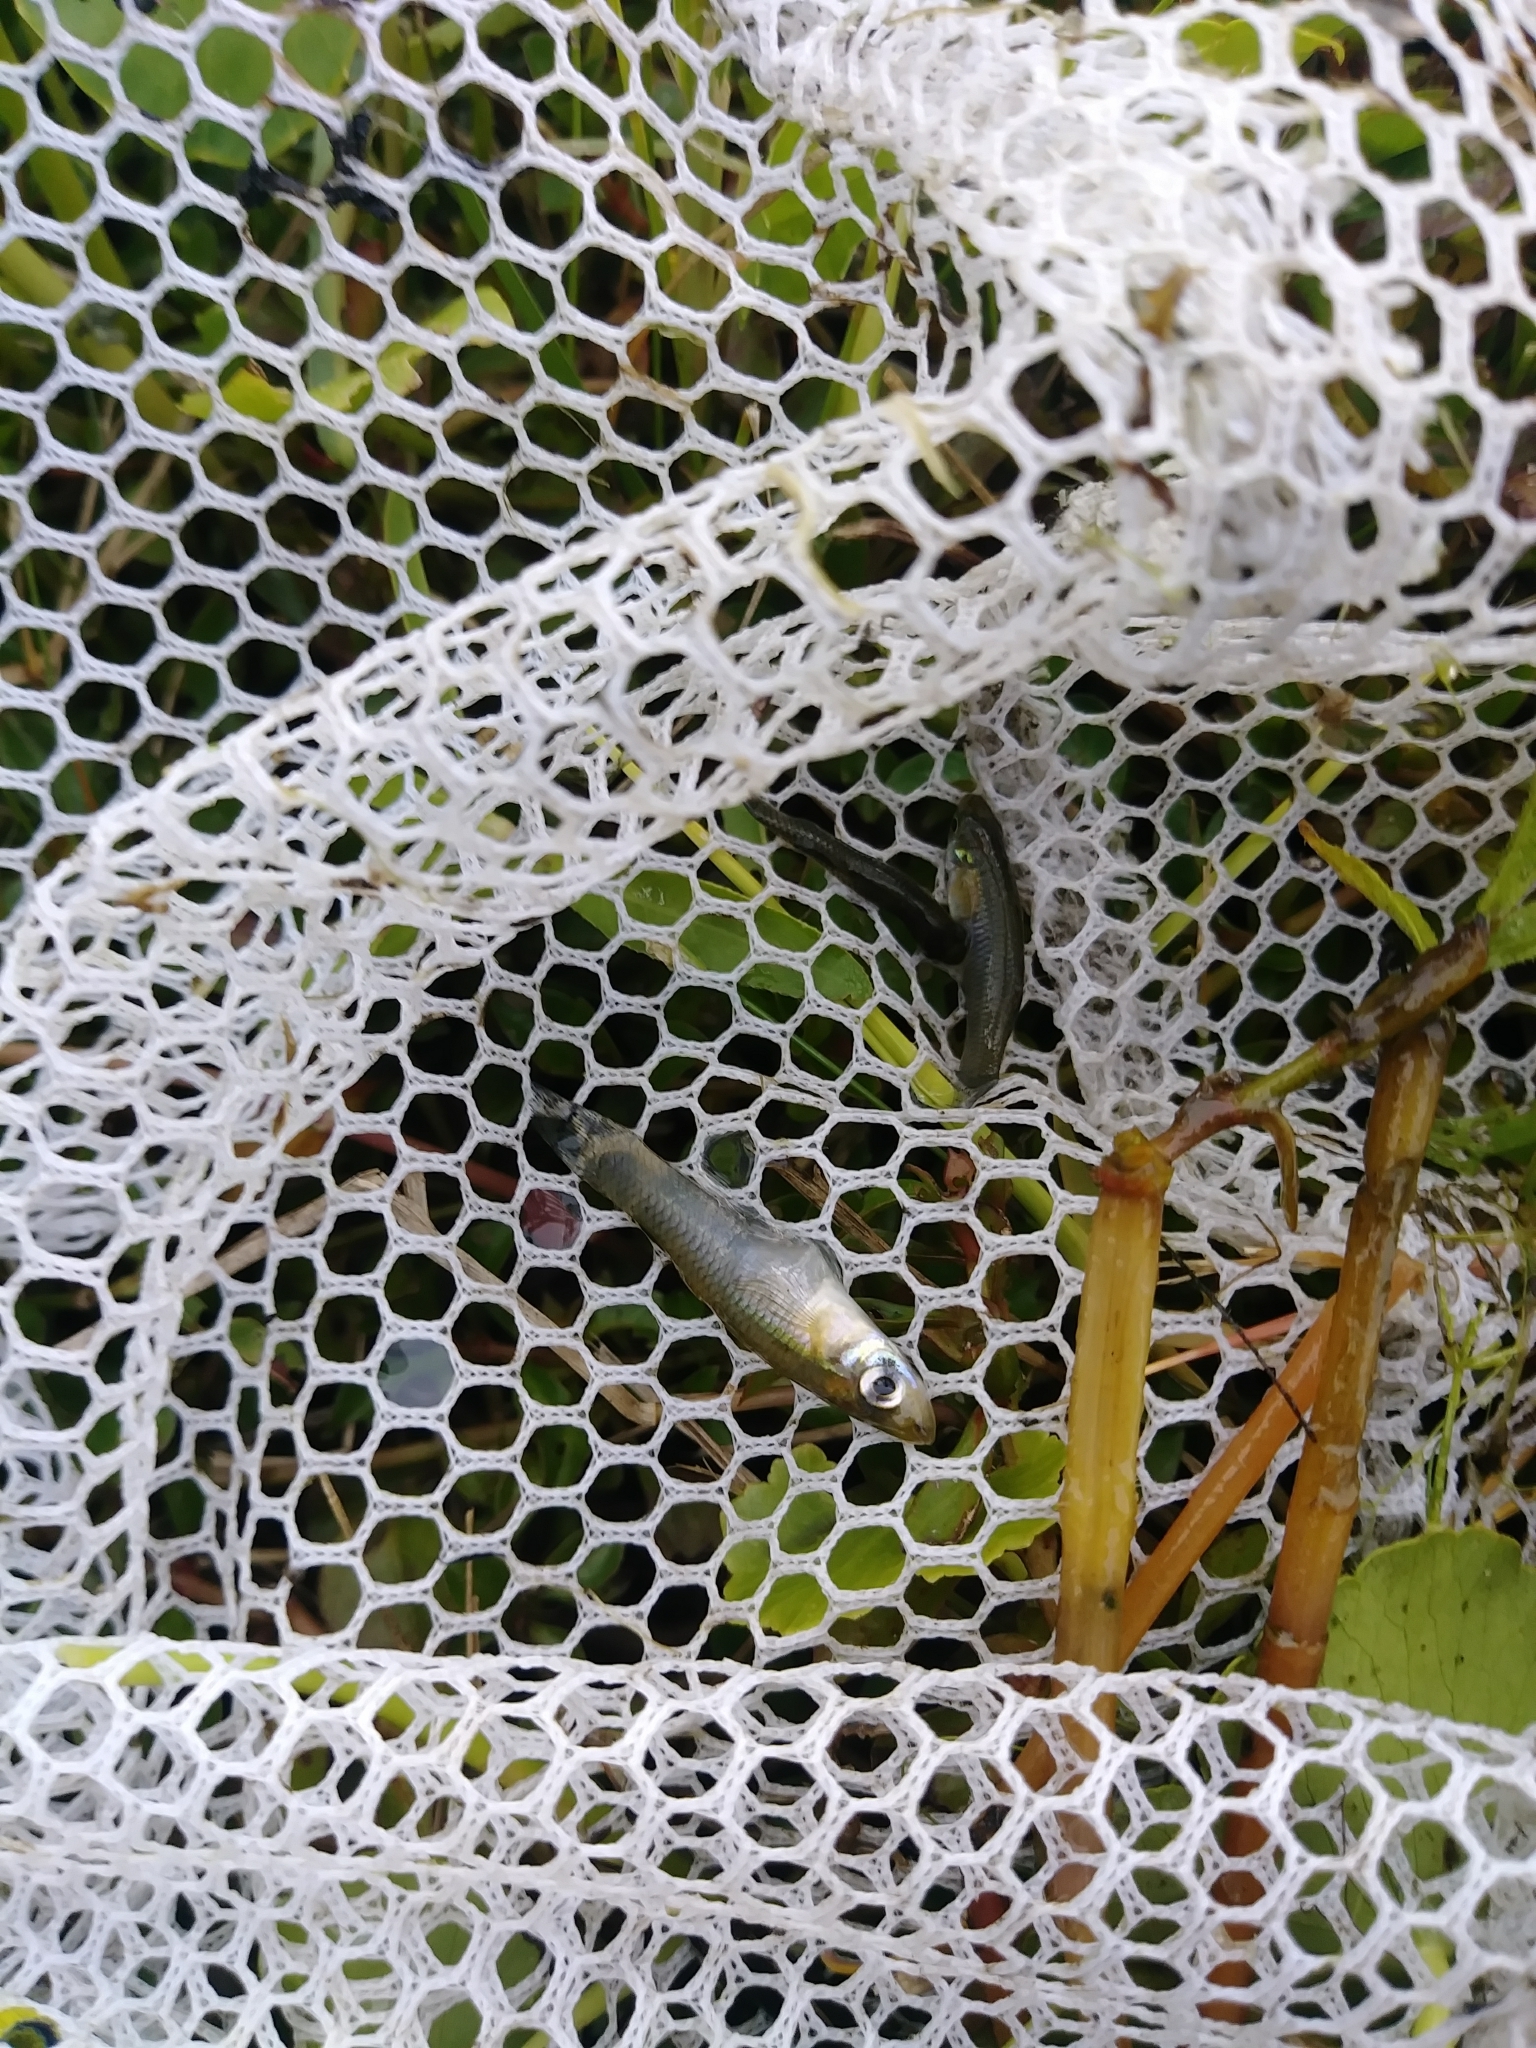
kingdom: Animalia
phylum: Chordata
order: Cyprinodontiformes
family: Poeciliidae
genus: Gambusia
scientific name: Gambusia holbrooki
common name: Eastern mosquitofish
